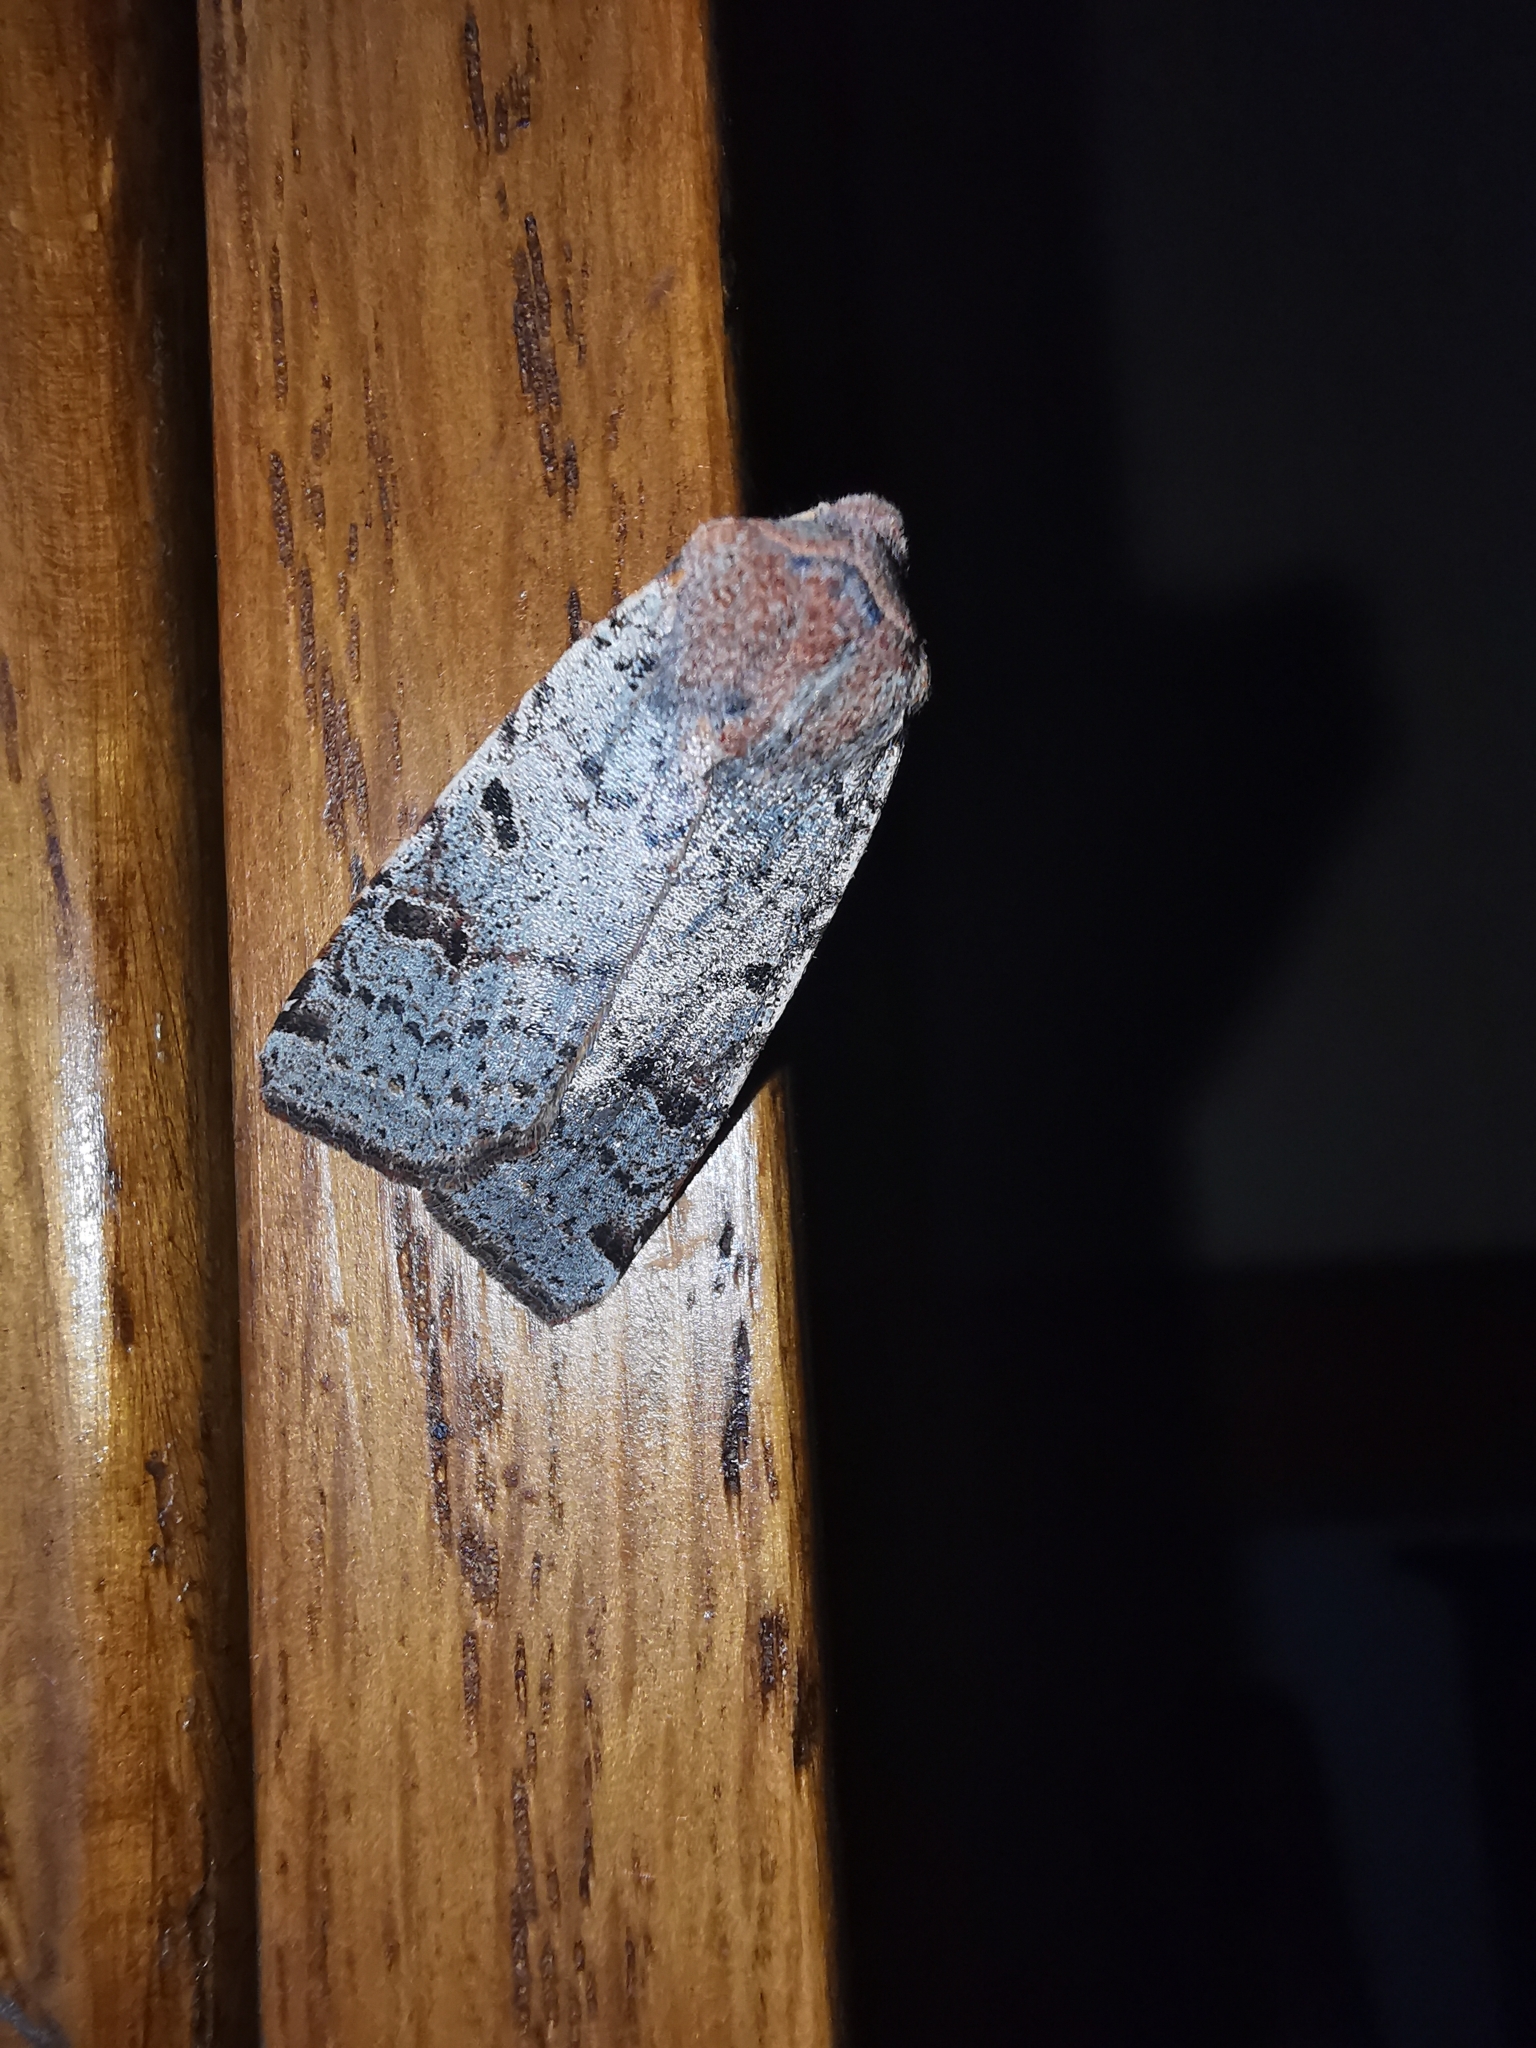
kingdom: Animalia
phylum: Arthropoda
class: Insecta
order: Lepidoptera
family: Noctuidae
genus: Agrochola
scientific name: Agrochola lychnidis
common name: Beaded chestnut
